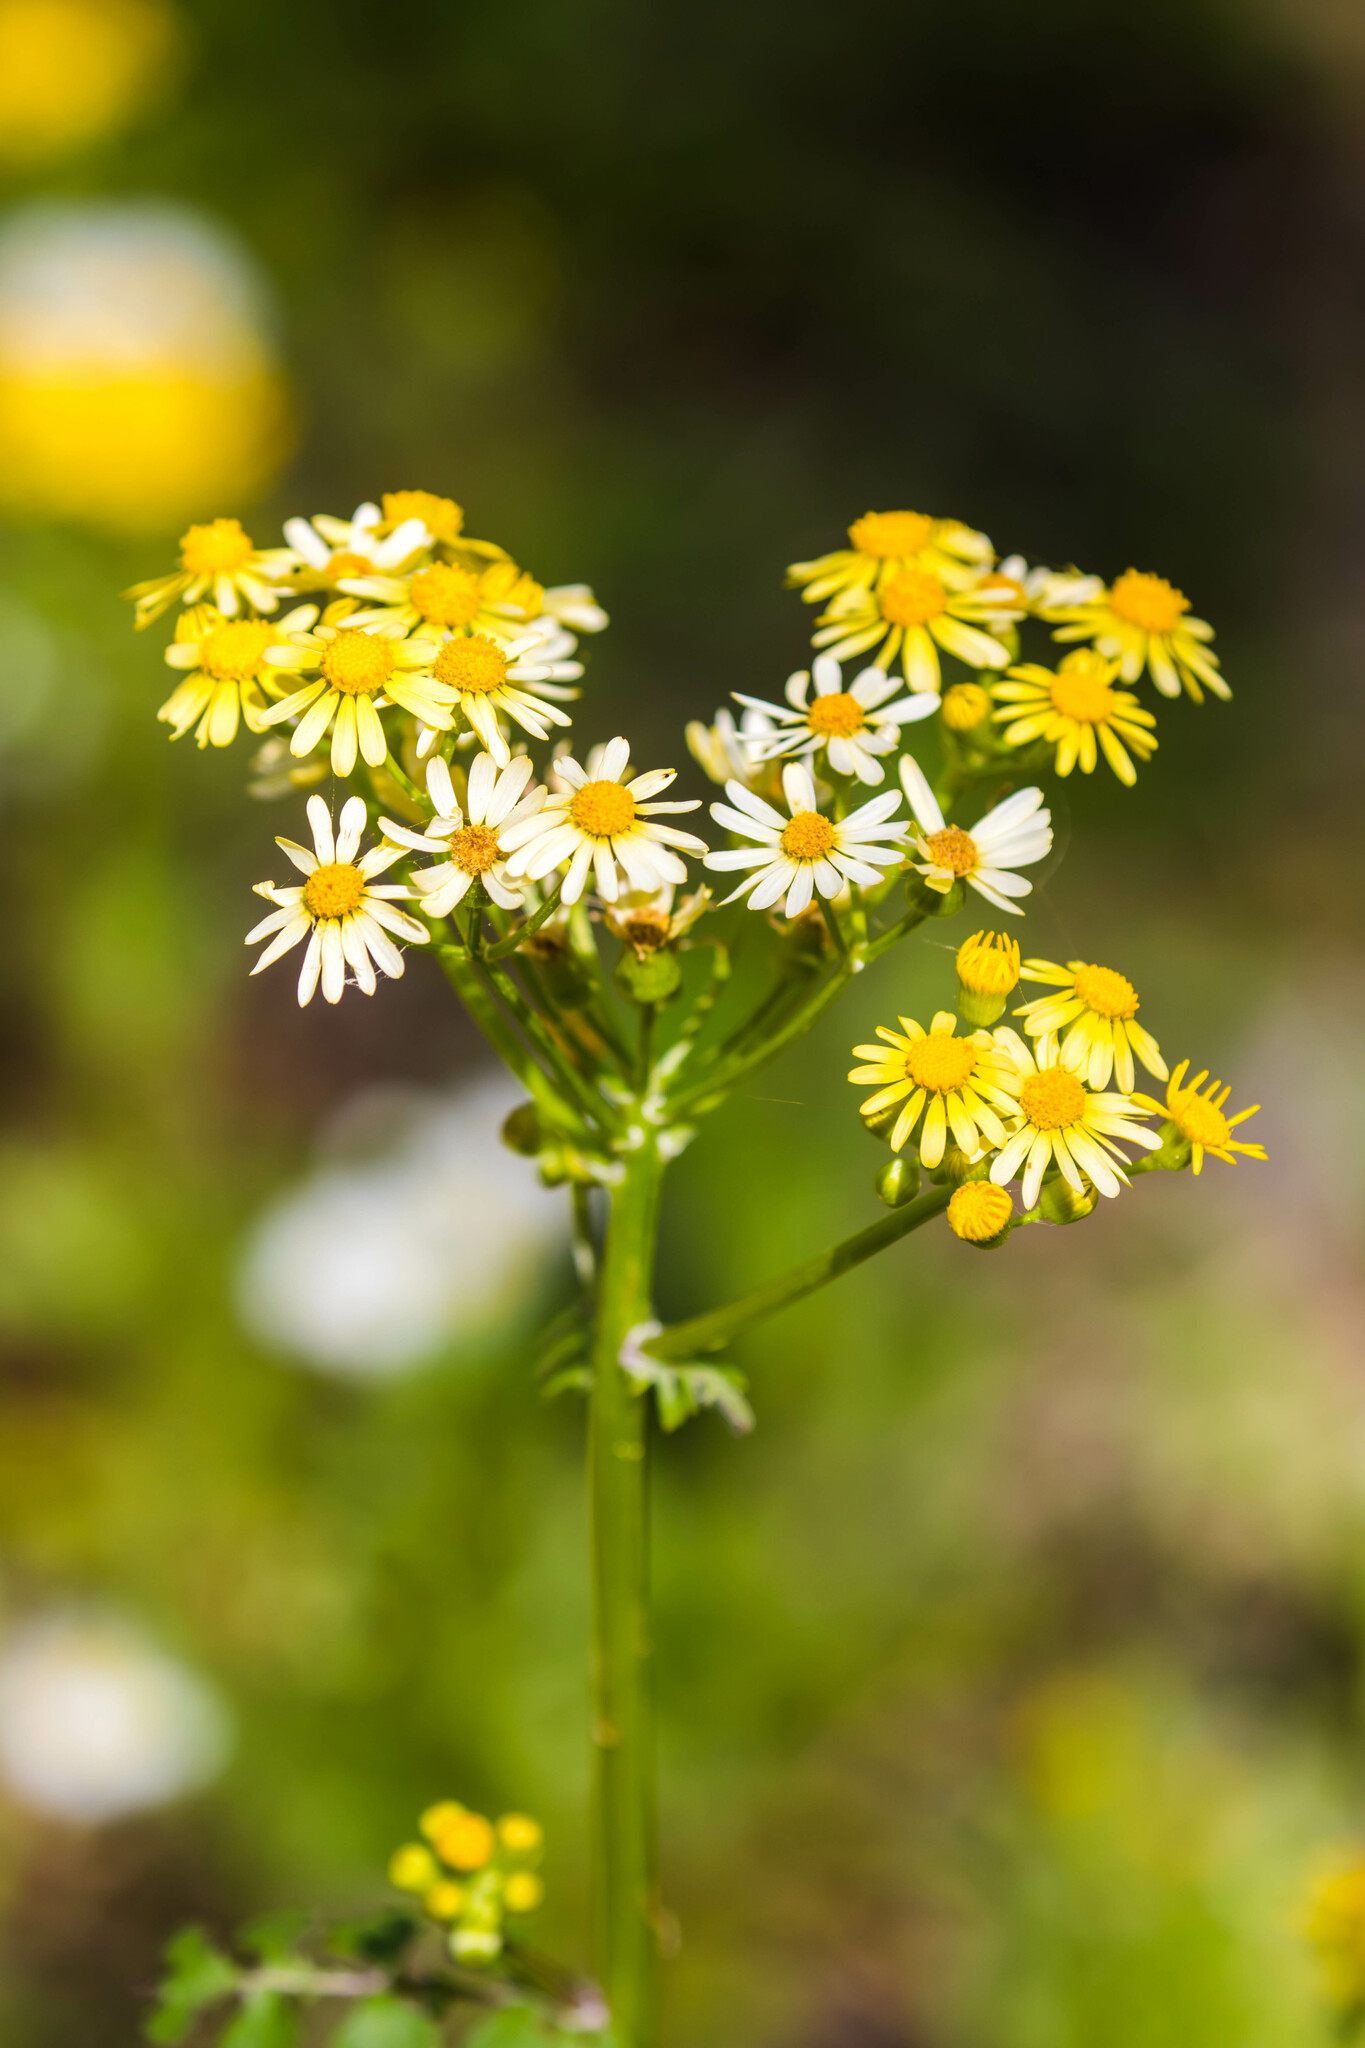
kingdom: Plantae
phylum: Tracheophyta
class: Magnoliopsida
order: Asterales
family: Asteraceae
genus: Packera
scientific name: Packera glabella
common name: Butterweed
